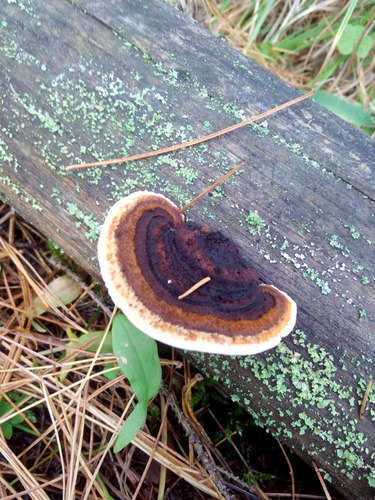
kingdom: Fungi
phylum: Basidiomycota
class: Agaricomycetes
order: Gloeophyllales
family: Gloeophyllaceae
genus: Gloeophyllum
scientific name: Gloeophyllum
